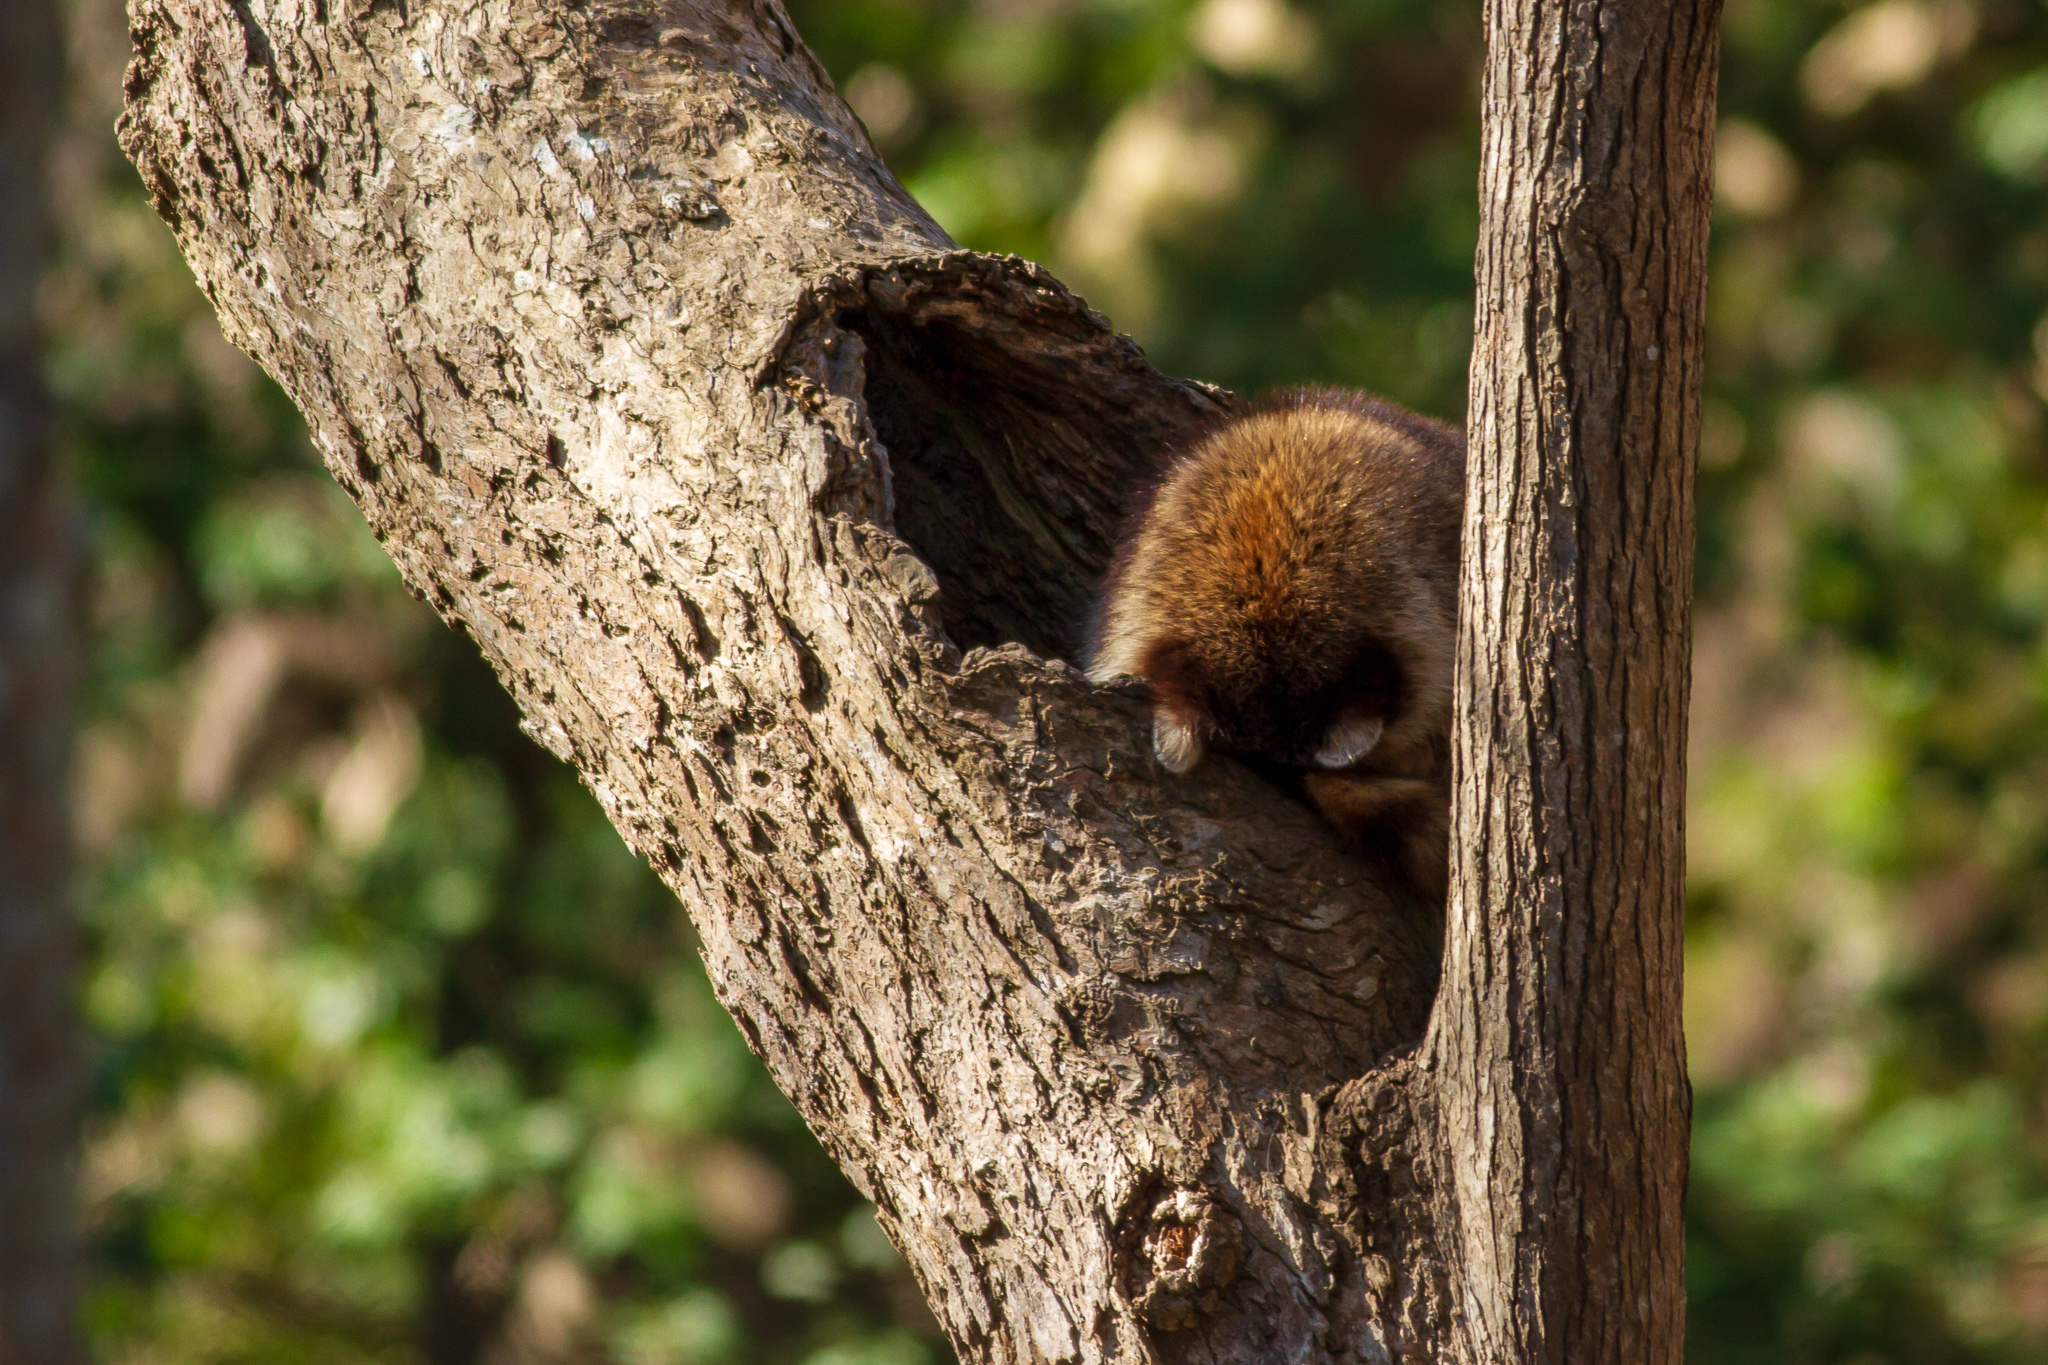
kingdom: Animalia
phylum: Chordata
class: Mammalia
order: Carnivora
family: Procyonidae
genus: Procyon
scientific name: Procyon lotor
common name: Raccoon
